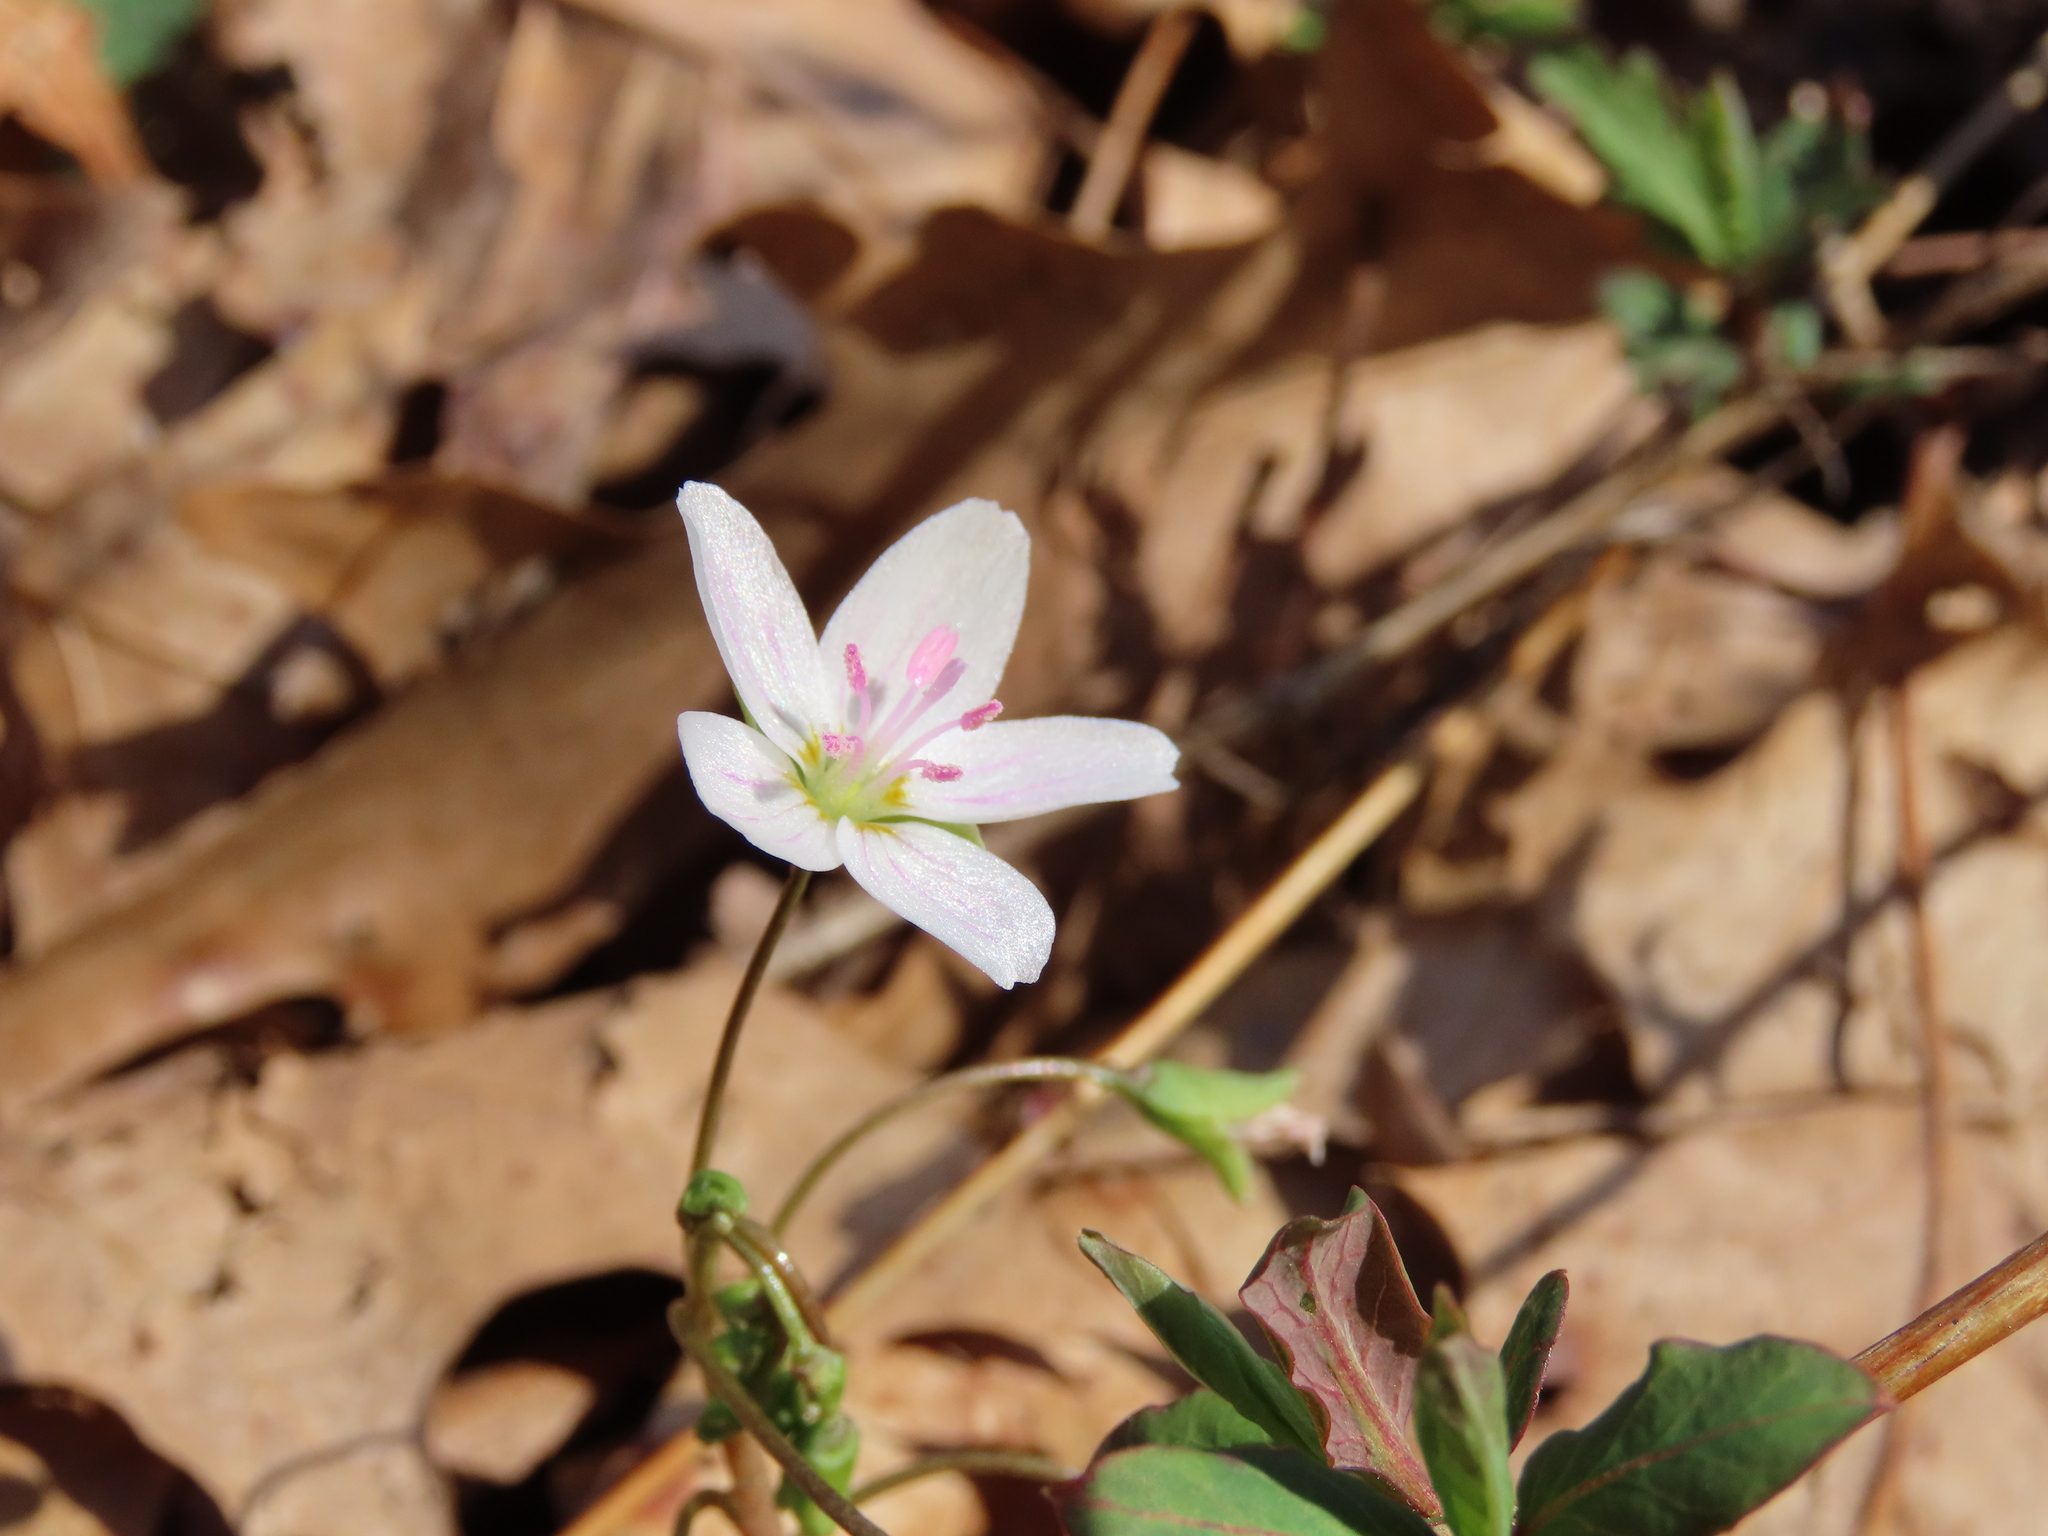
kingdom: Plantae
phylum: Tracheophyta
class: Magnoliopsida
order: Caryophyllales
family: Montiaceae
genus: Claytonia
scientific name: Claytonia virginica
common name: Virginia springbeauty
